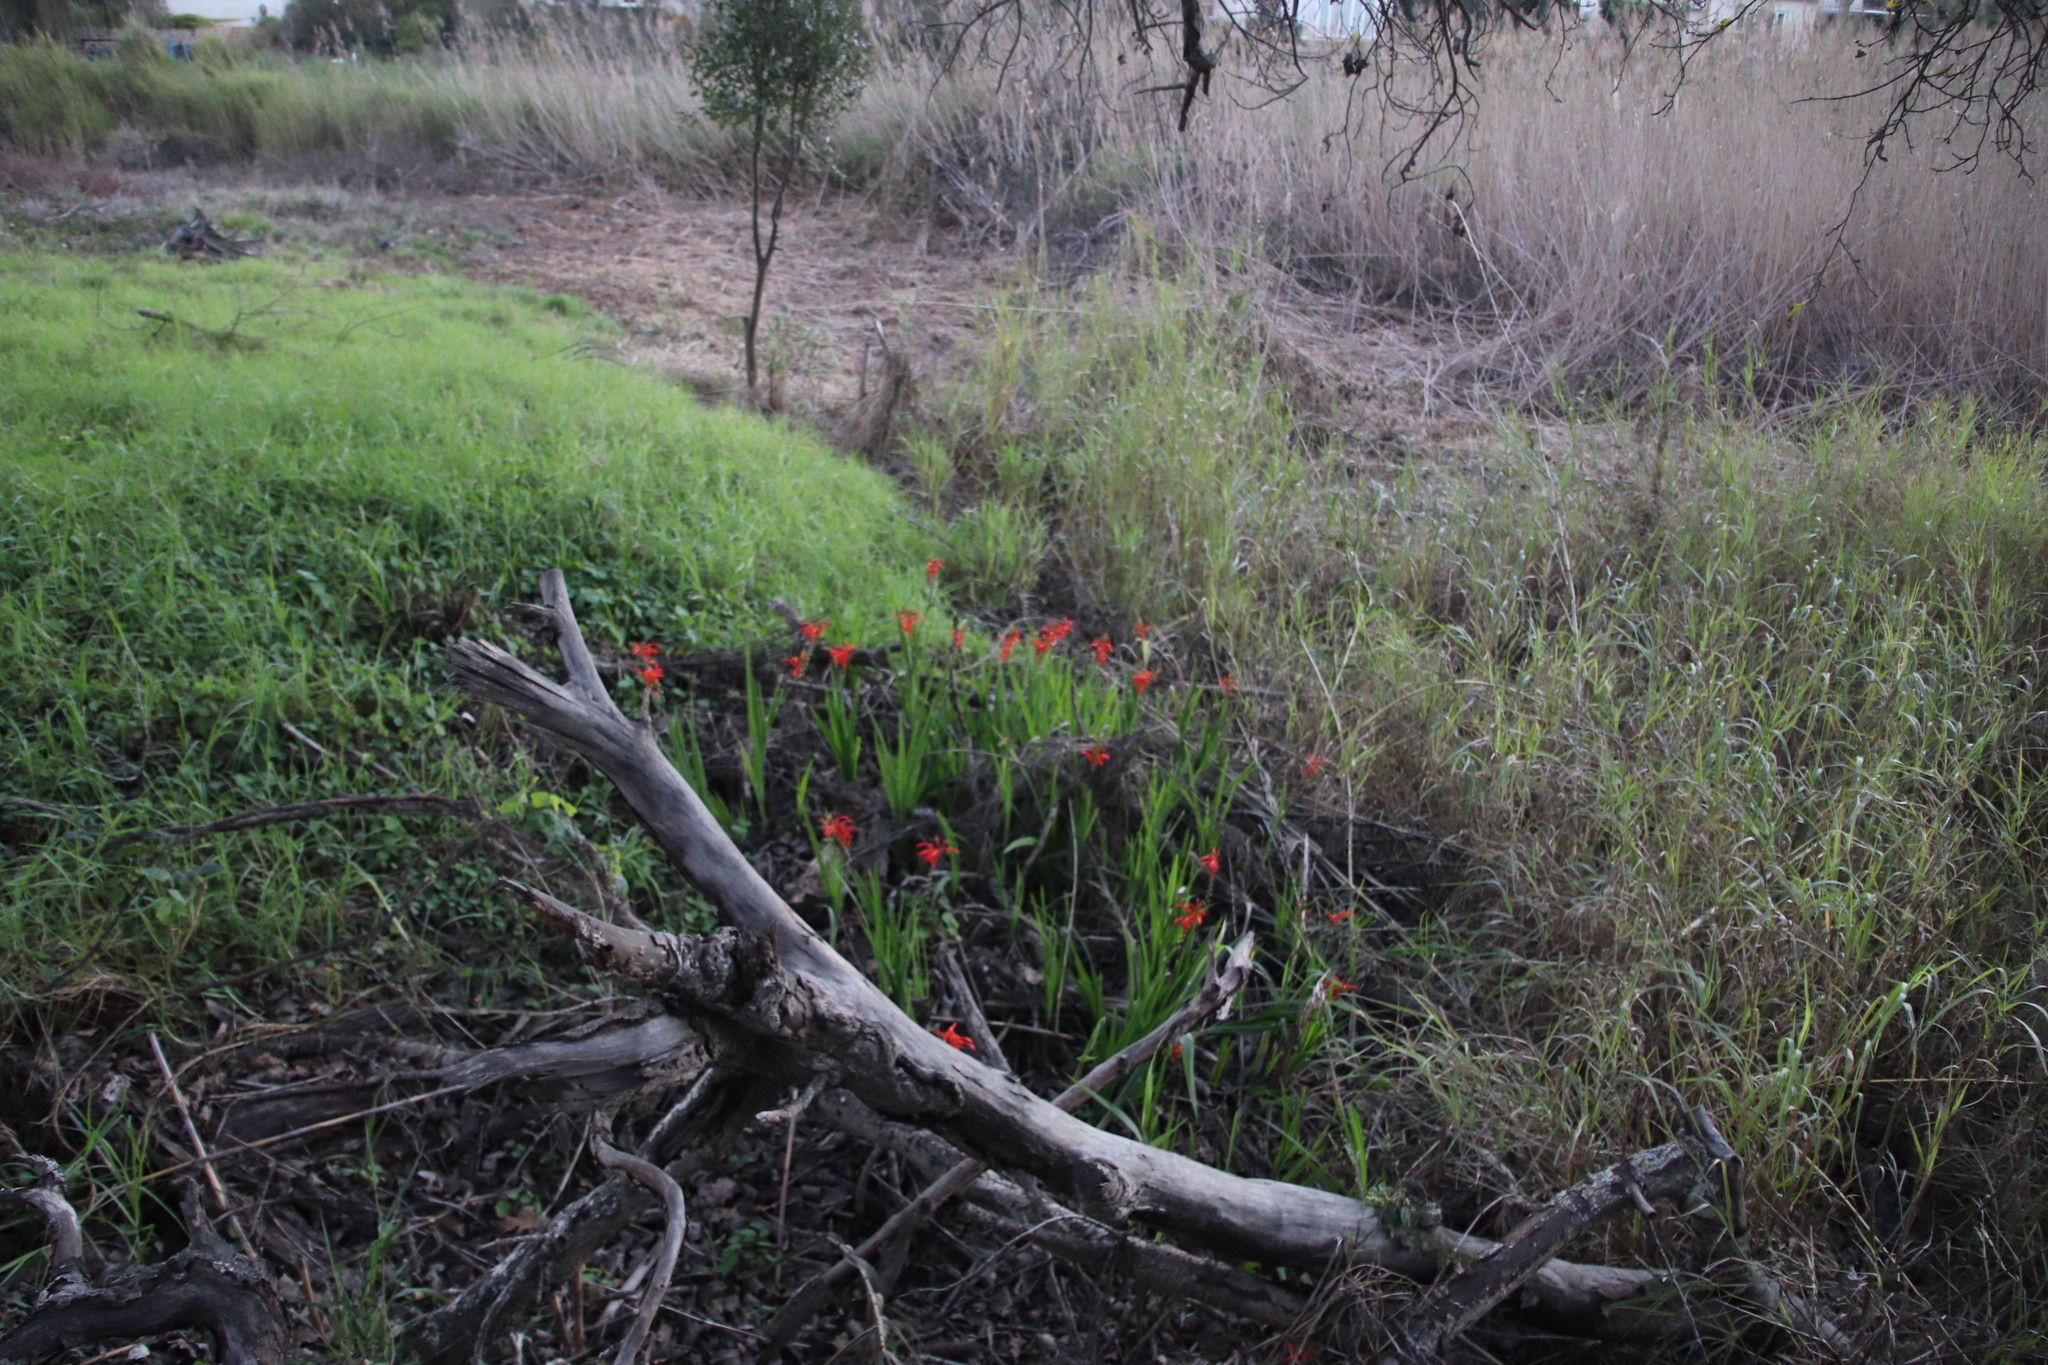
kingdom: Plantae
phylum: Tracheophyta
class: Liliopsida
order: Asparagales
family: Iridaceae
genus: Chasmanthe
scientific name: Chasmanthe aethiopica
